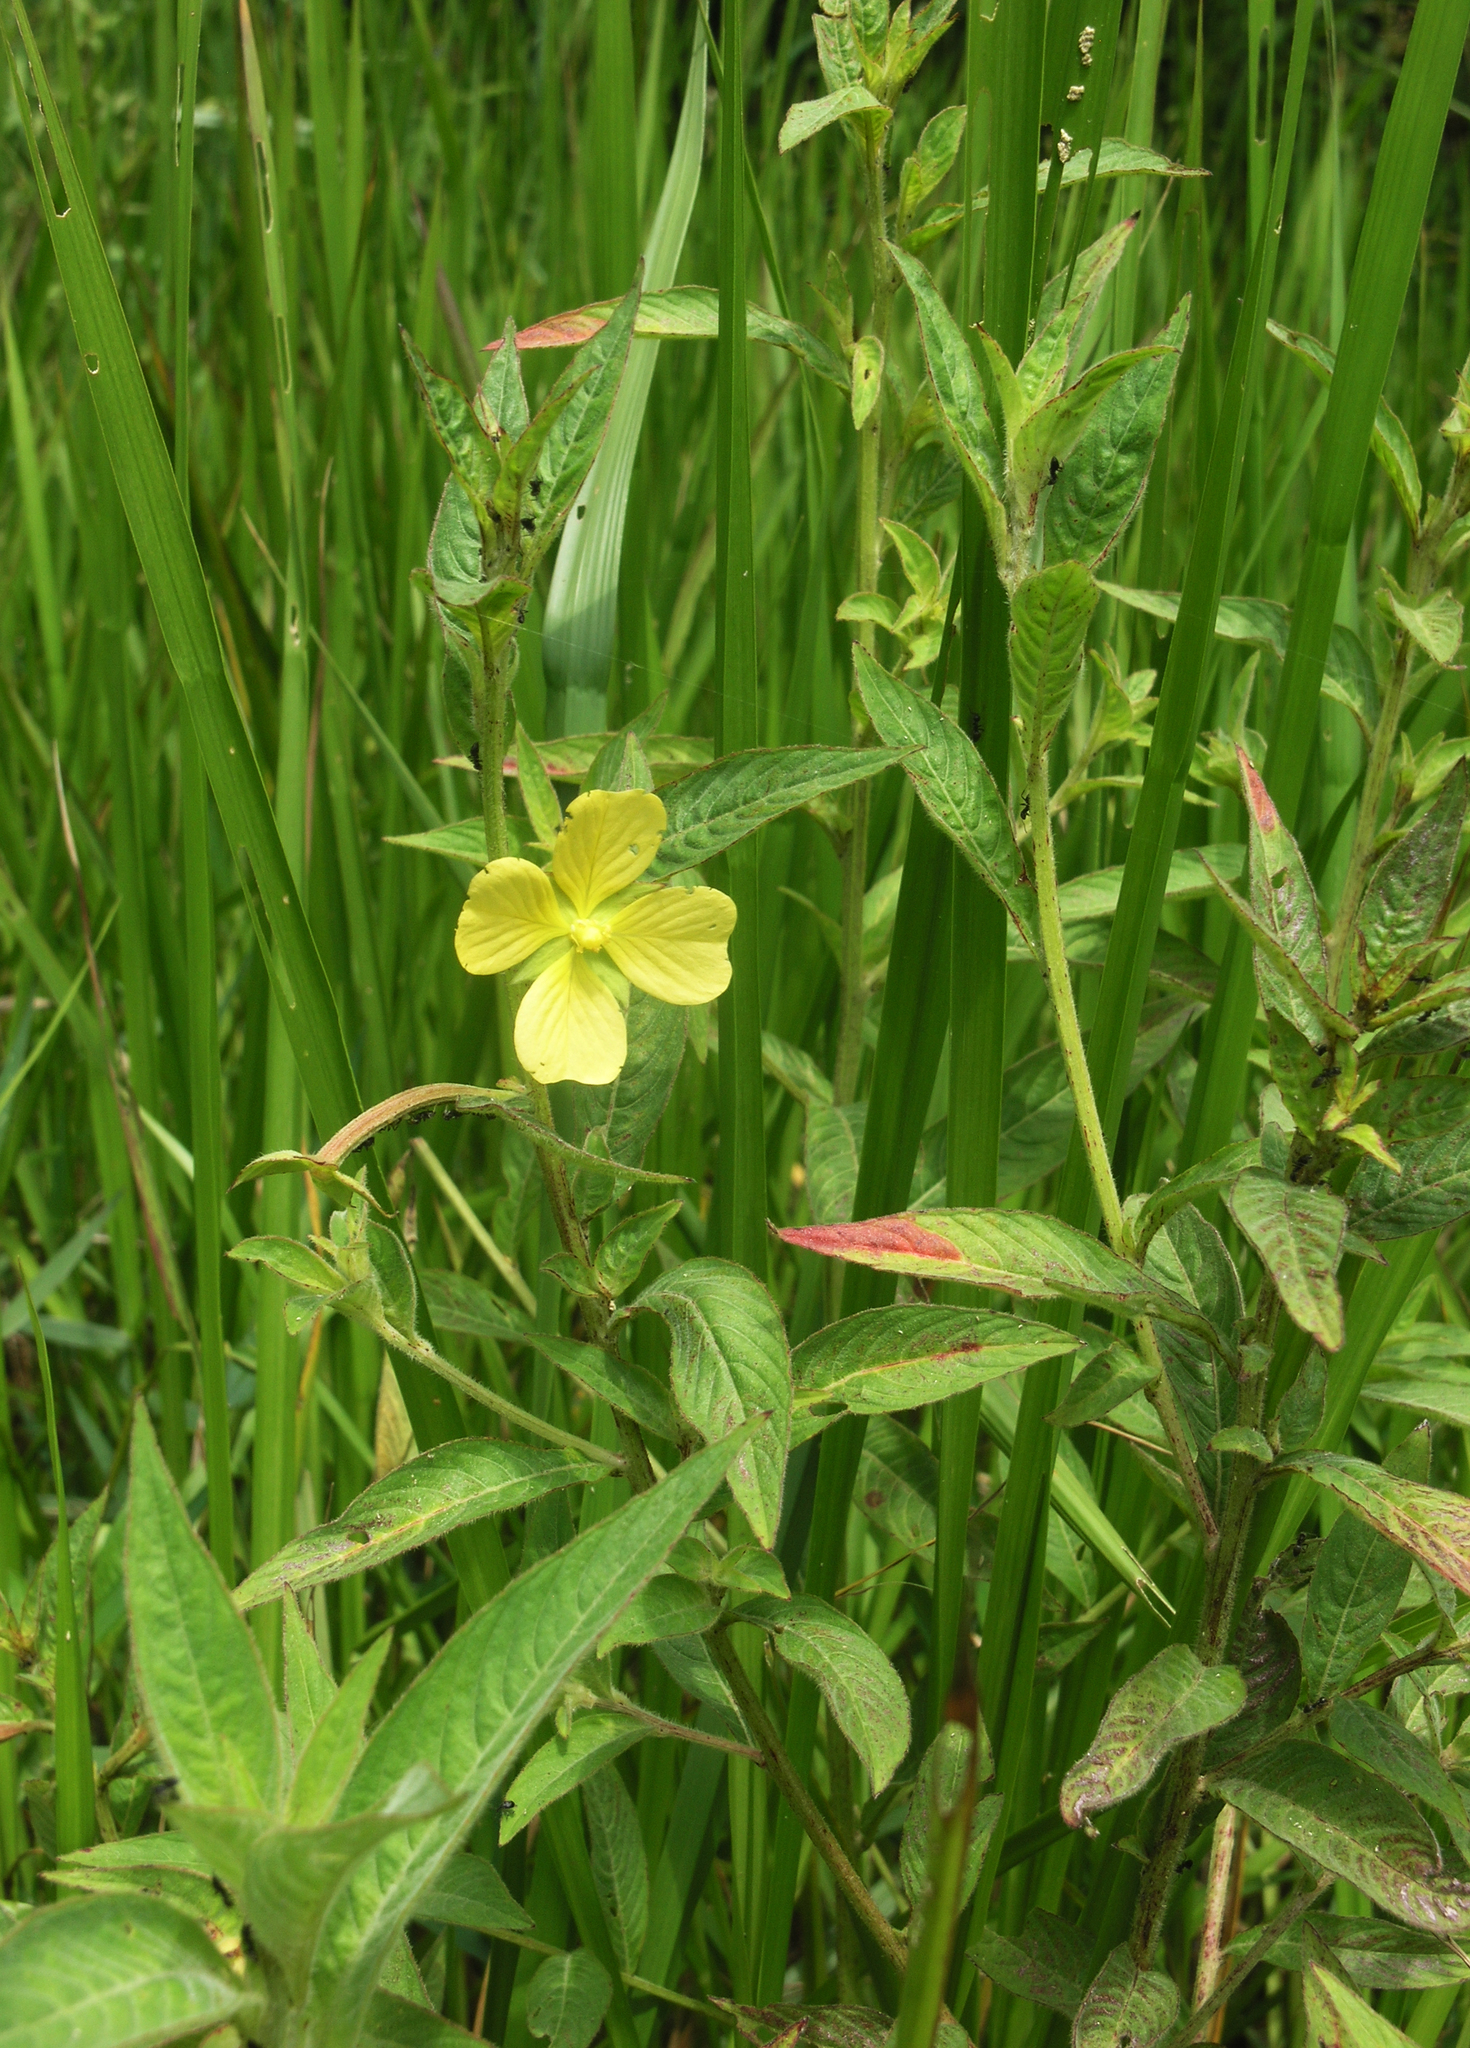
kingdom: Plantae
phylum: Tracheophyta
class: Magnoliopsida
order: Myrtales
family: Onagraceae
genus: Ludwigia
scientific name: Ludwigia octovalvis
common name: Water-primrose
